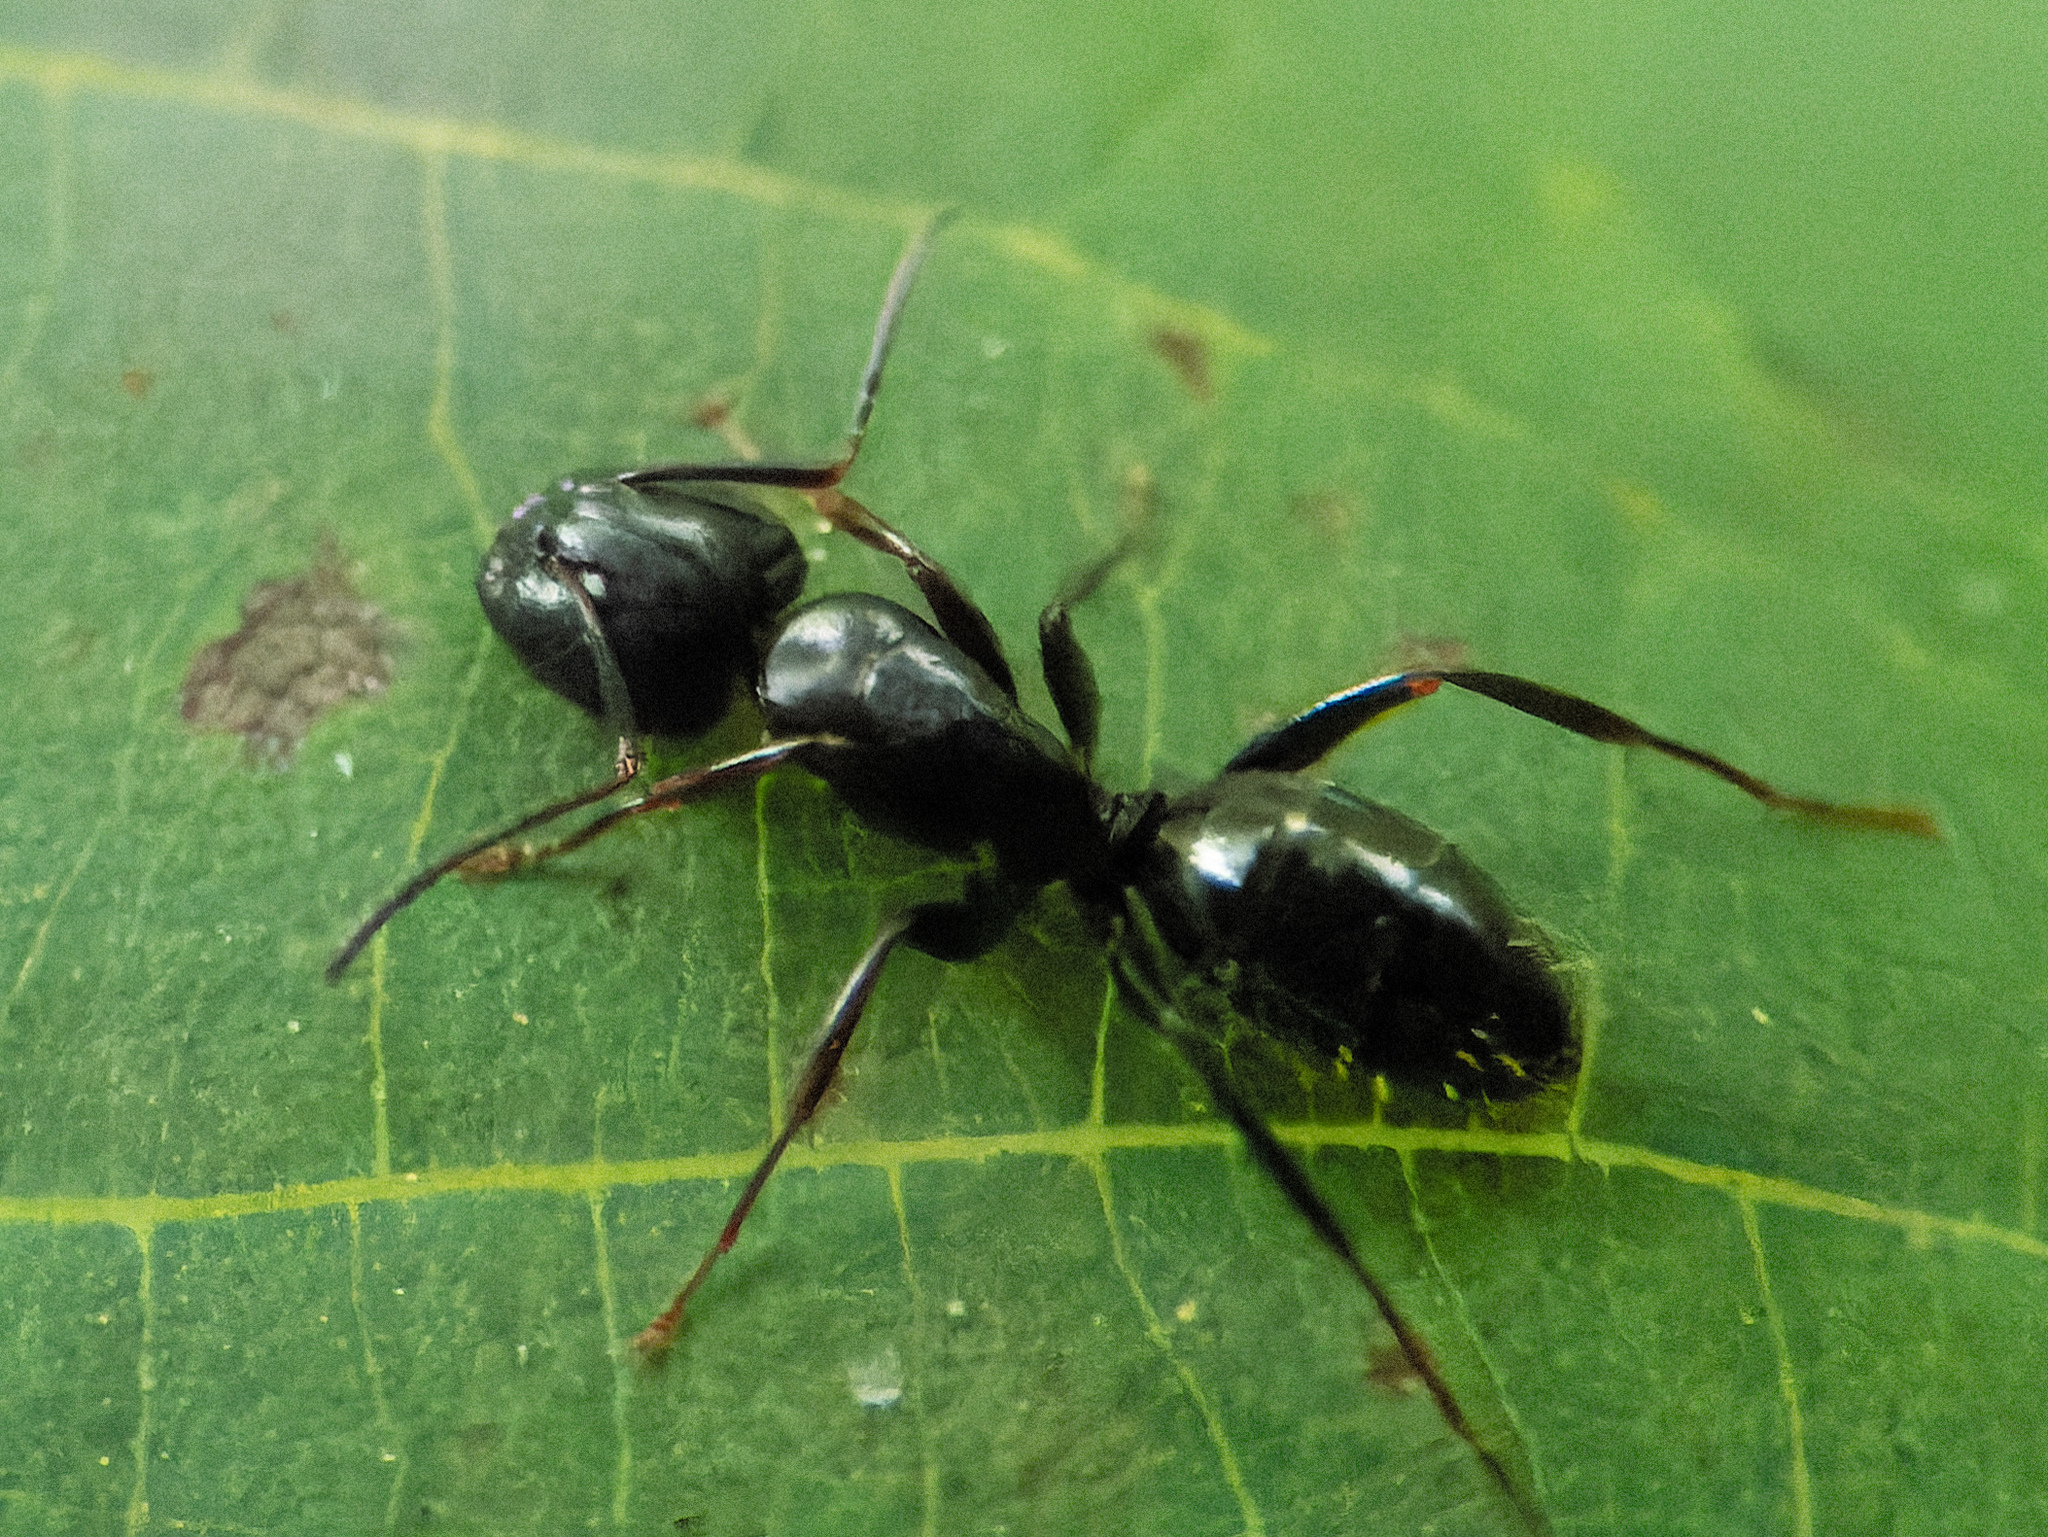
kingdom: Animalia
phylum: Arthropoda
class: Insecta
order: Hymenoptera
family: Formicidae
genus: Camponotus
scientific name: Camponotus pennsylvanicus
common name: Black carpenter ant
